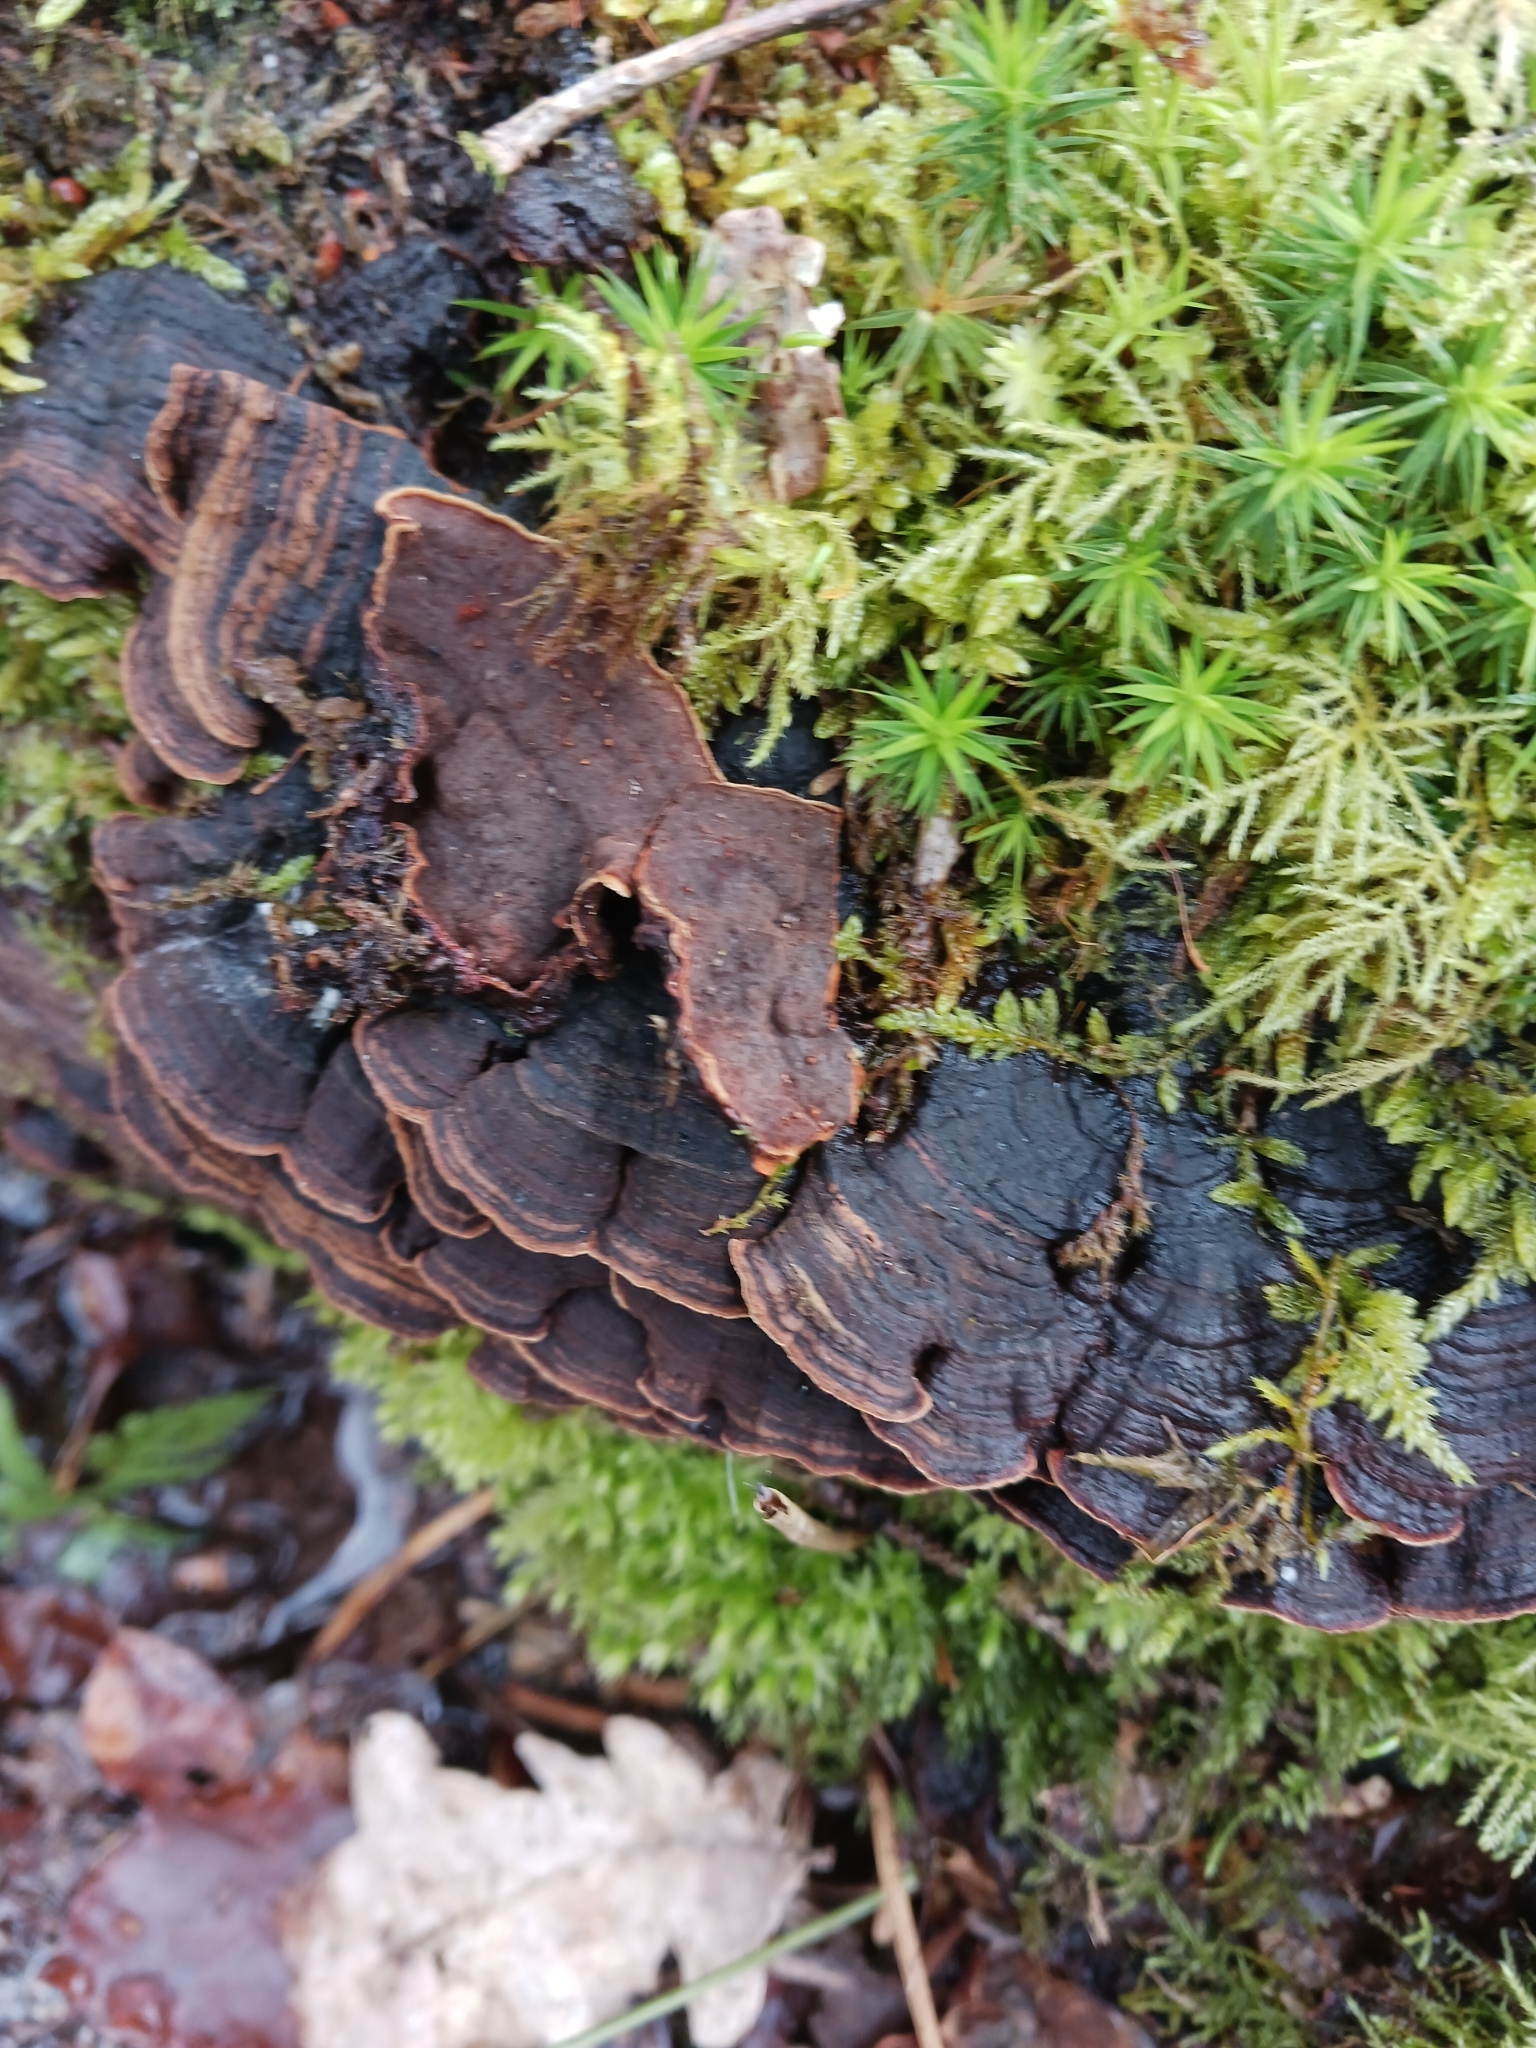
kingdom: Fungi
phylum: Basidiomycota
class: Agaricomycetes
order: Hymenochaetales
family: Hymenochaetaceae
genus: Hymenochaete
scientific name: Hymenochaete rubiginosa
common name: Oak curtain crust
